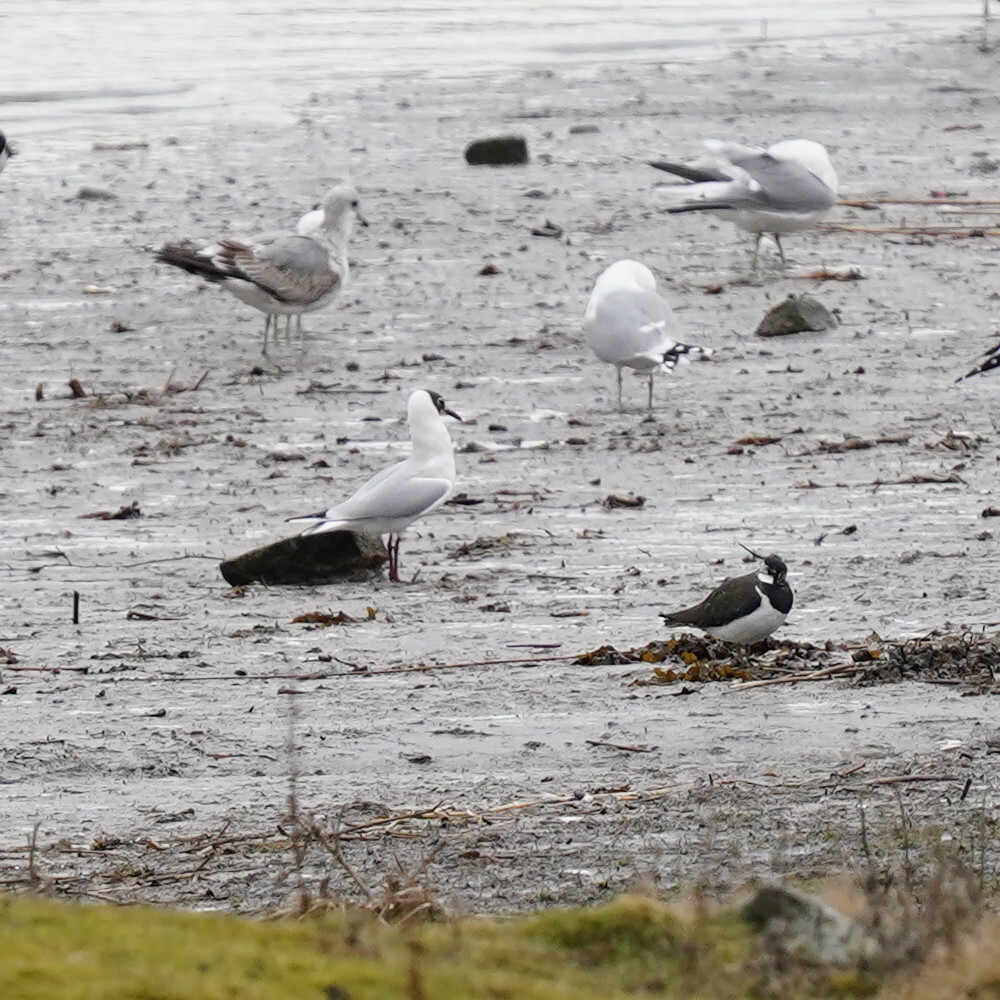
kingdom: Animalia
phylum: Chordata
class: Aves
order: Charadriiformes
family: Laridae
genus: Chroicocephalus
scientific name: Chroicocephalus ridibundus
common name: Black-headed gull
